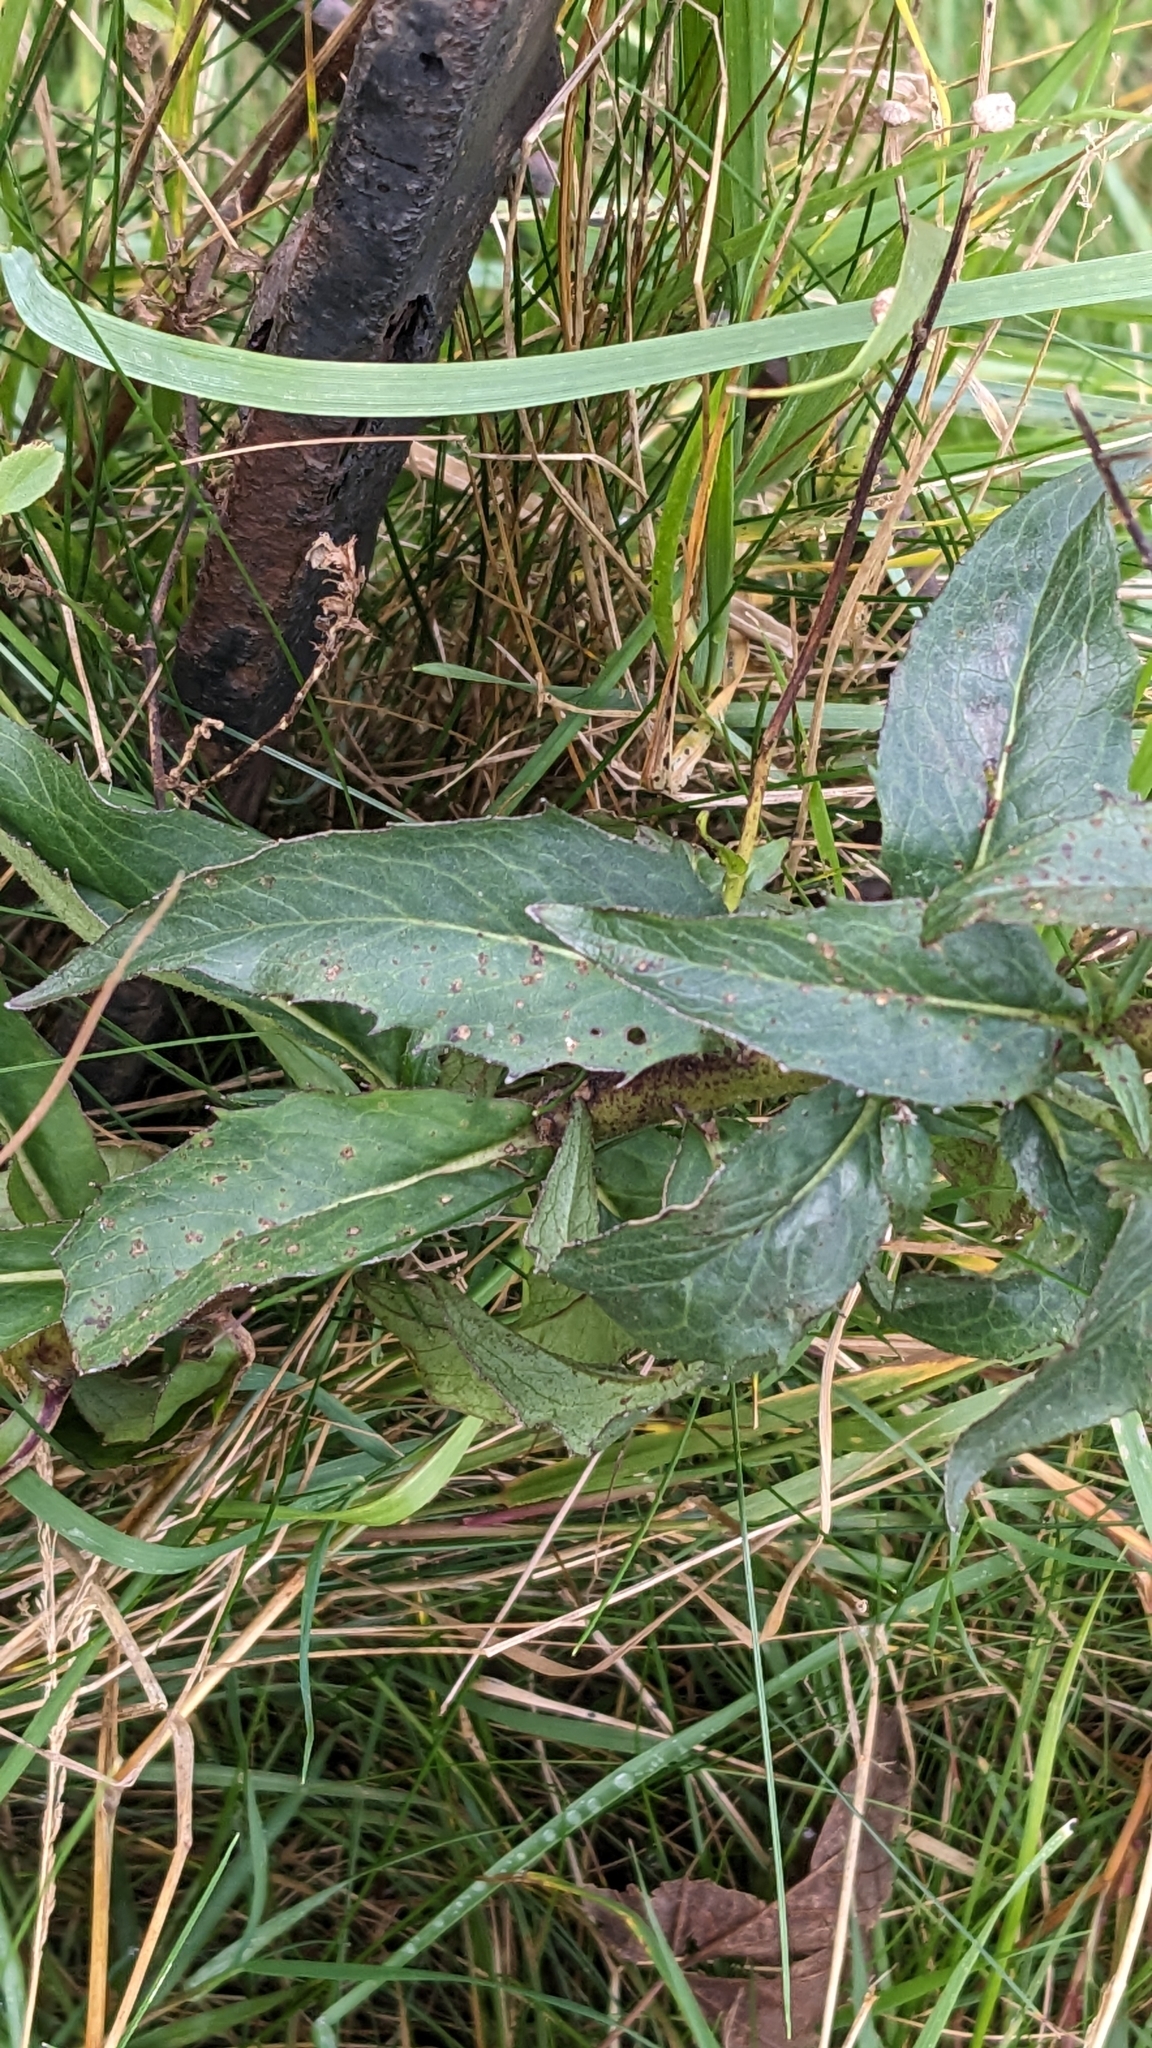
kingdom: Plantae
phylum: Tracheophyta
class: Magnoliopsida
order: Asterales
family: Asteraceae
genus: Hieracium
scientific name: Hieracium sabaudum
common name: New england hawkweed
